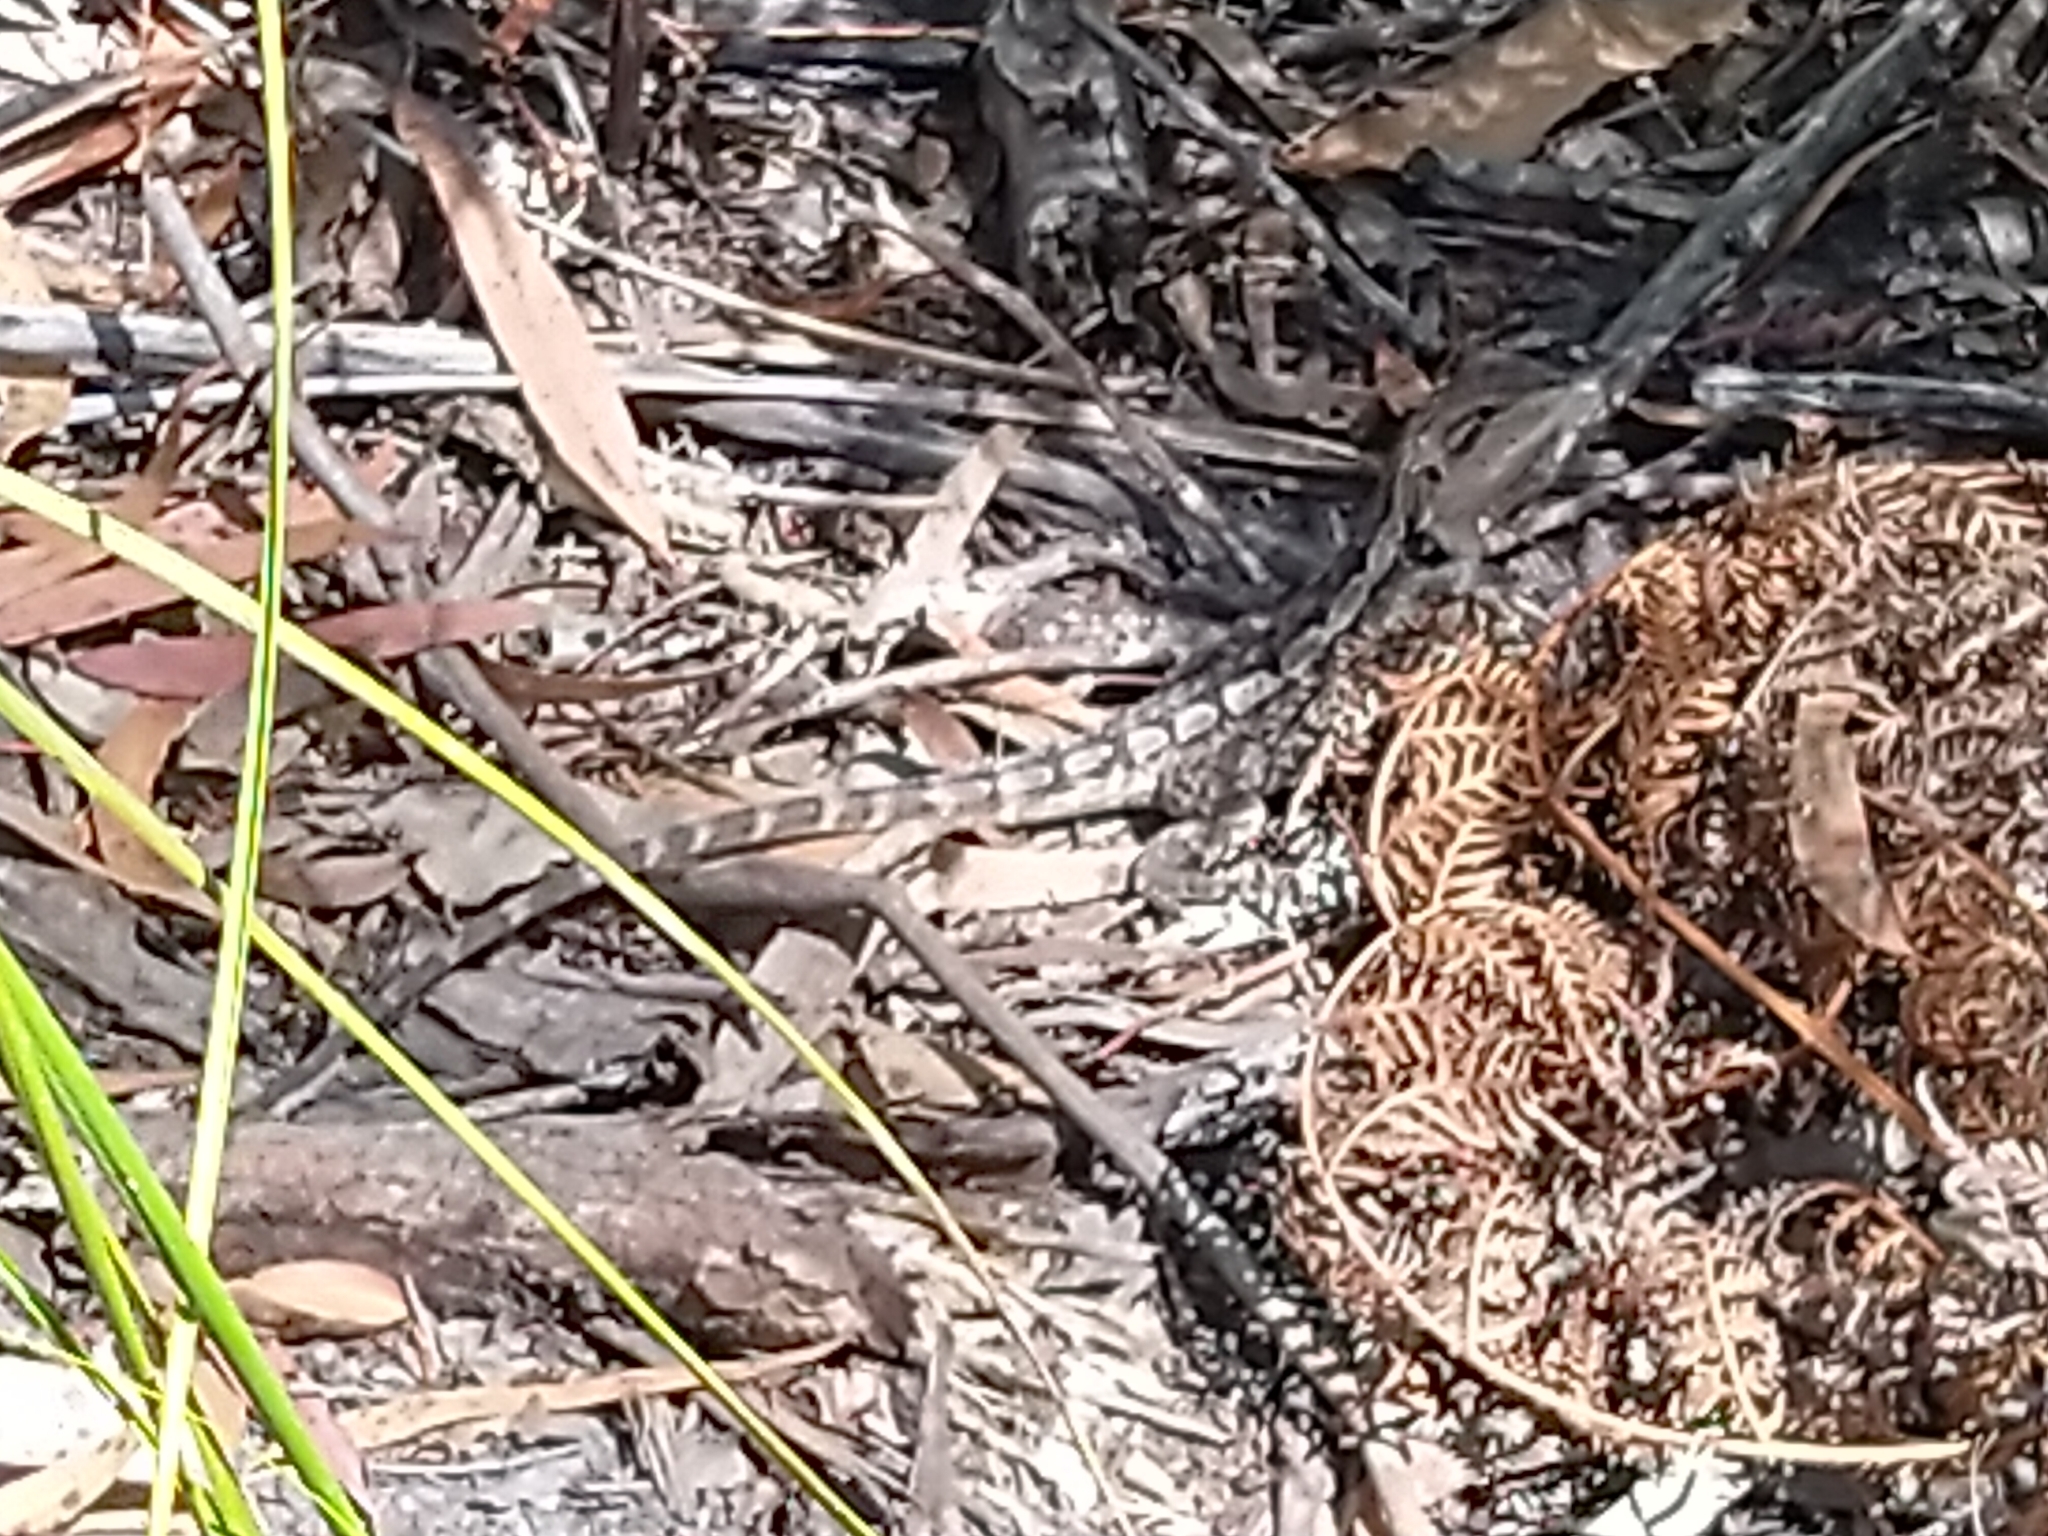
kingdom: Animalia
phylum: Chordata
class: Squamata
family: Agamidae
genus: Amphibolurus
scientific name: Amphibolurus muricatus
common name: Jacky lizard
